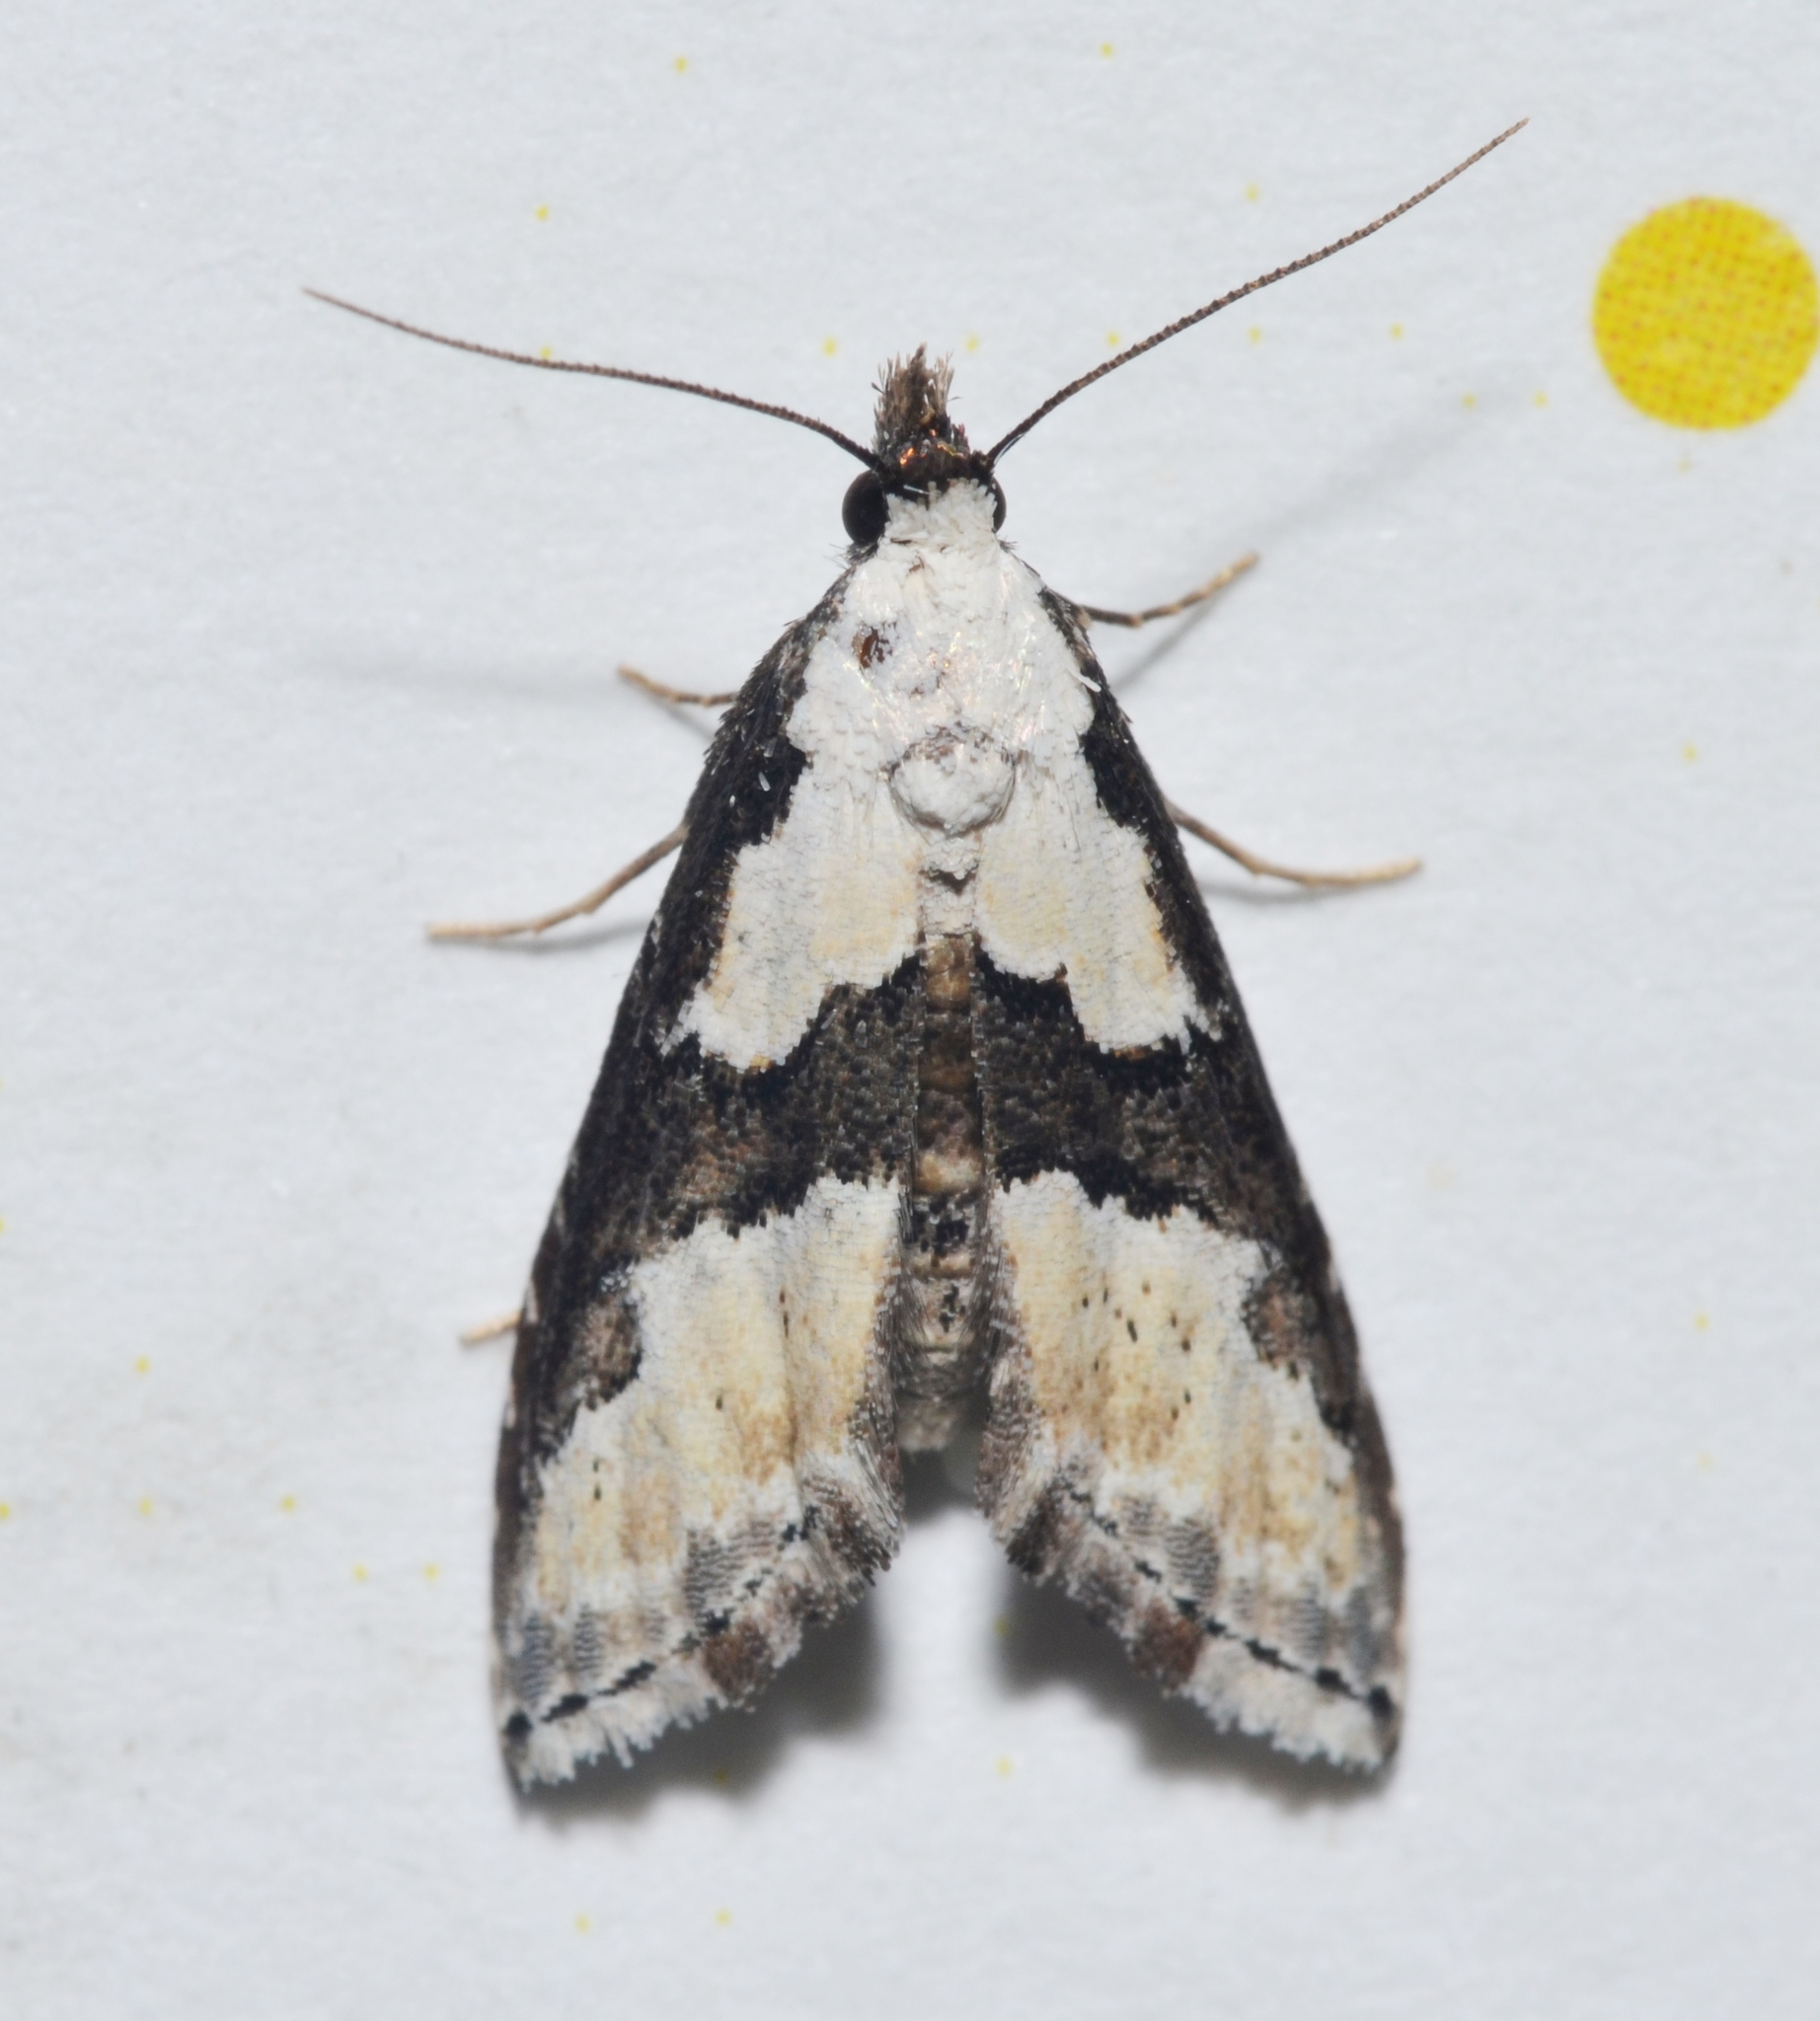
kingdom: Animalia
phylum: Arthropoda
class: Insecta
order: Lepidoptera
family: Noctuidae
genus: Nigetia
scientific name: Nigetia formosalis
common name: Thin-winged owlet
